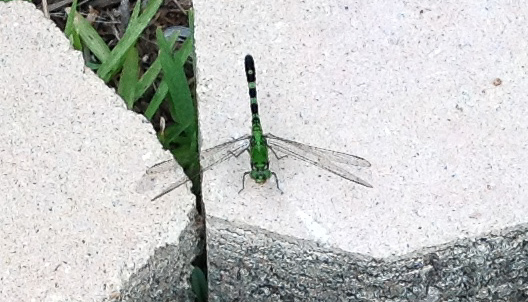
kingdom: Animalia
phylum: Arthropoda
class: Insecta
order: Odonata
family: Libellulidae
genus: Erythemis
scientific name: Erythemis simplicicollis
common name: Eastern pondhawk
